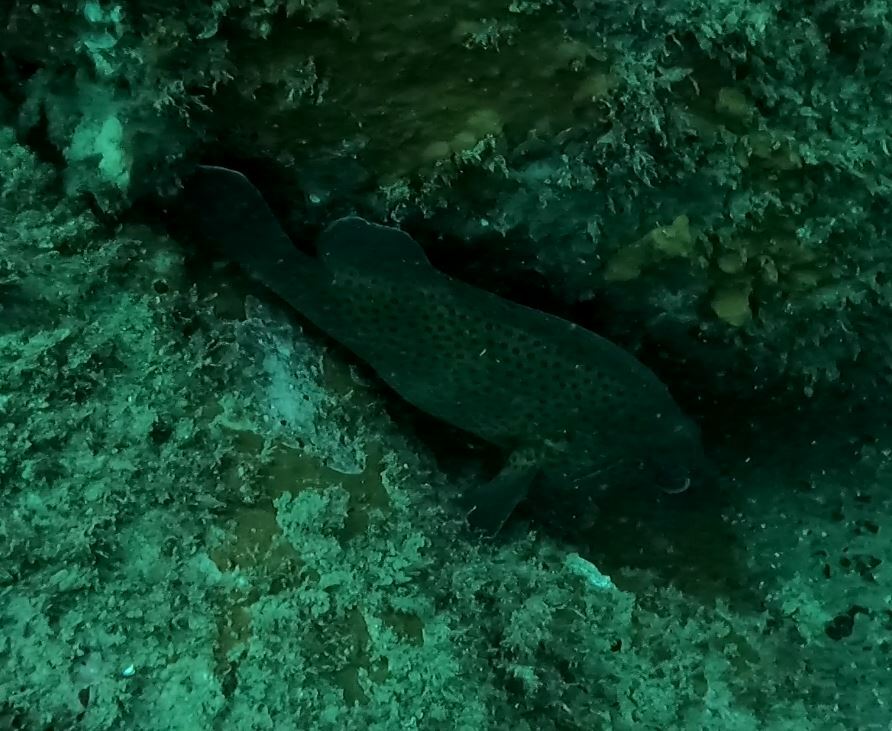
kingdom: Animalia
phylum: Chordata
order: Perciformes
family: Serranidae
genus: Acanthistius
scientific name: Acanthistius ocellatus
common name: Eastern wirrah
